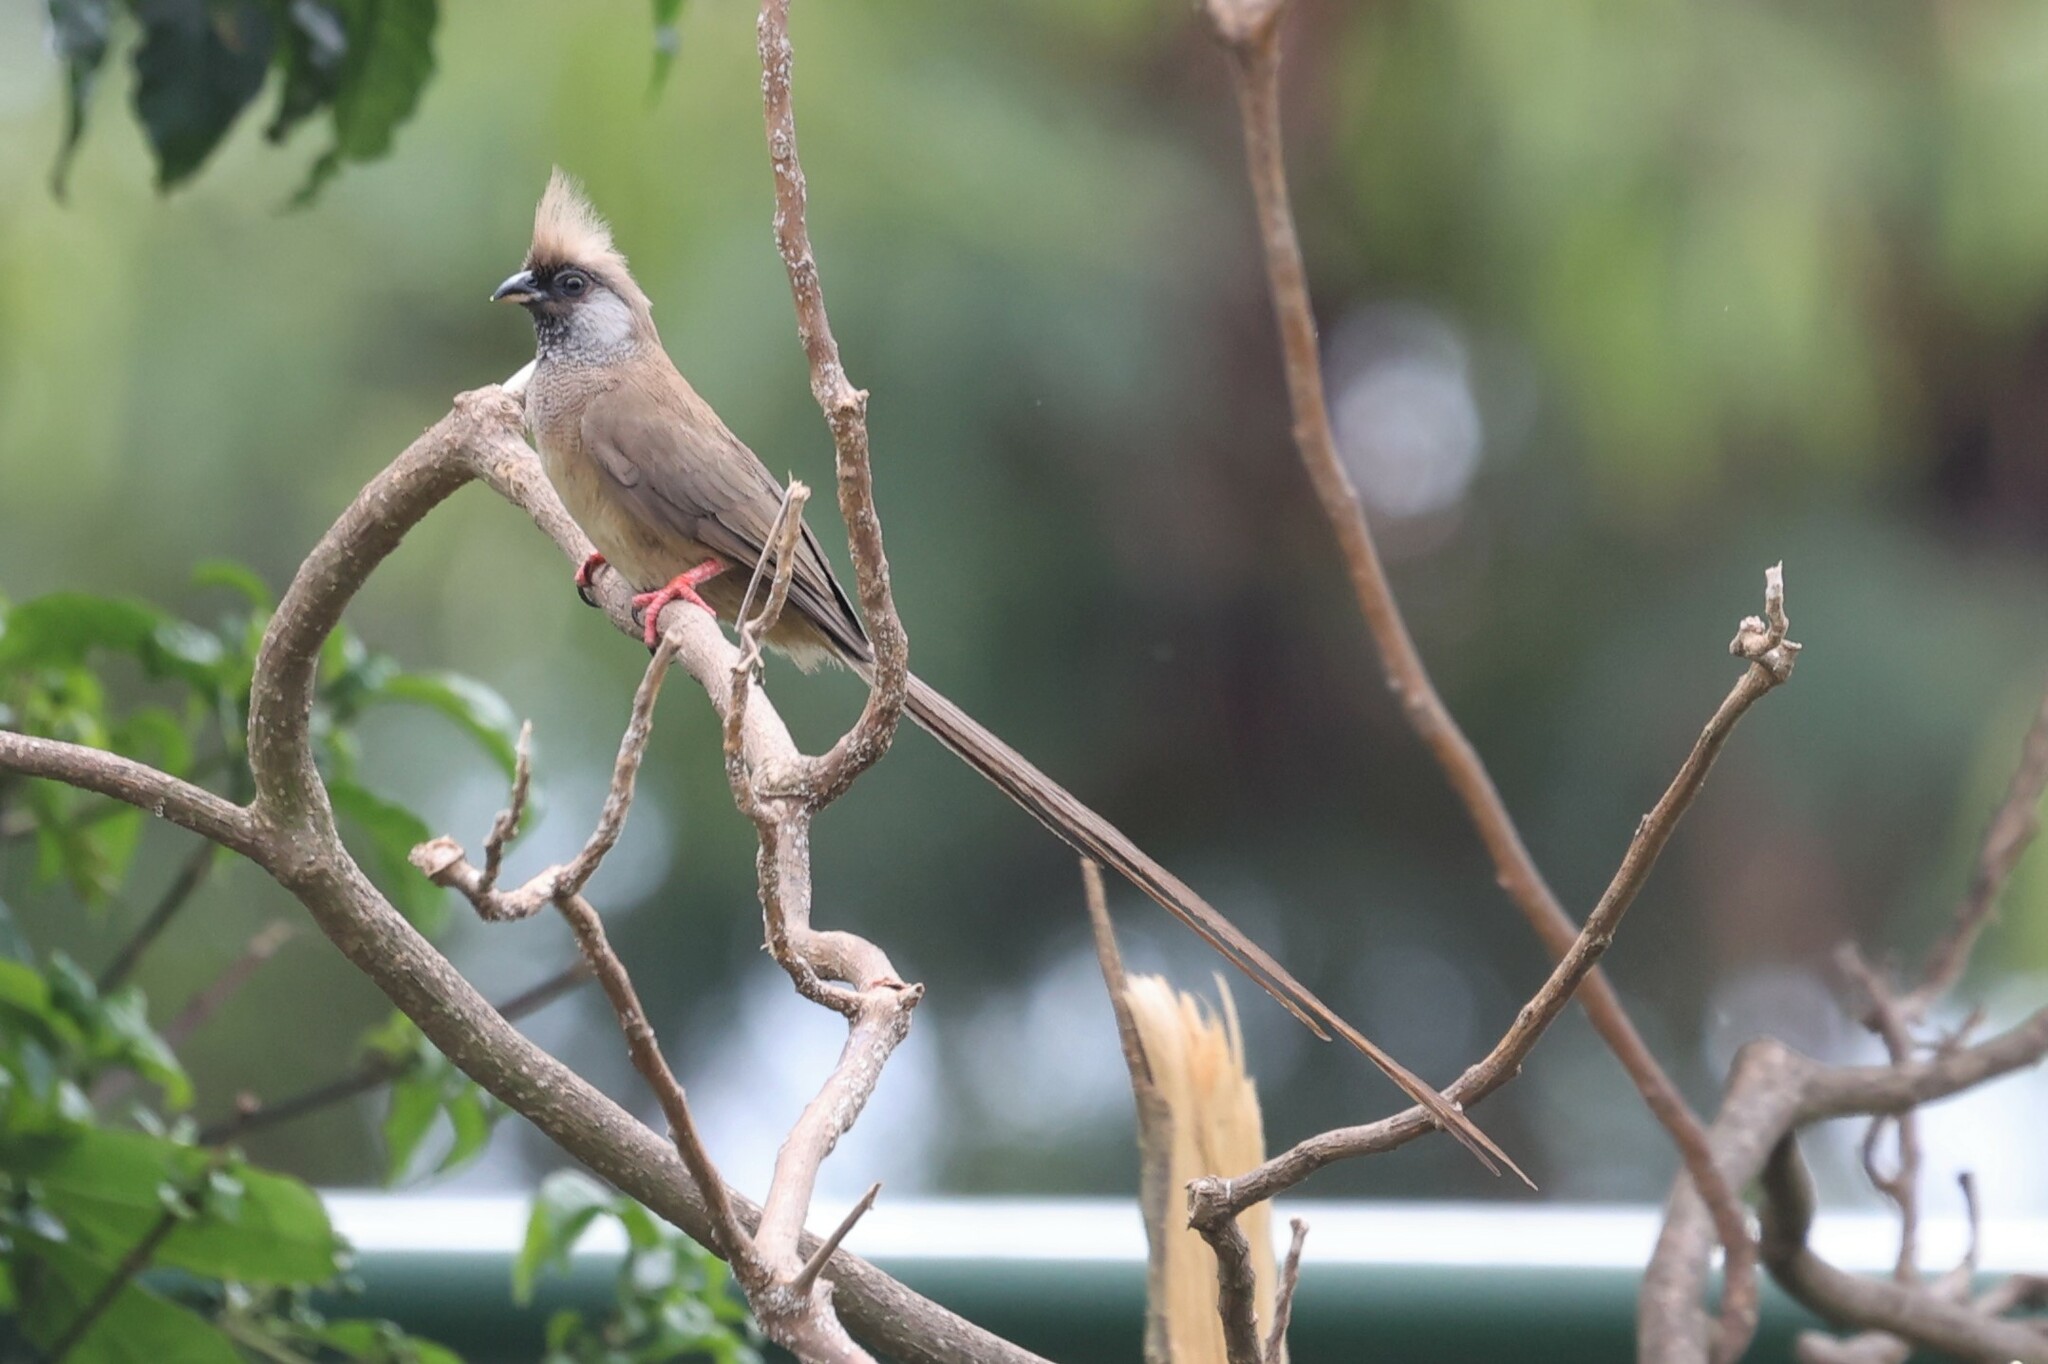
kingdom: Animalia
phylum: Chordata
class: Aves
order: Coliiformes
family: Coliidae
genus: Colius
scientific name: Colius striatus
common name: Speckled mousebird
